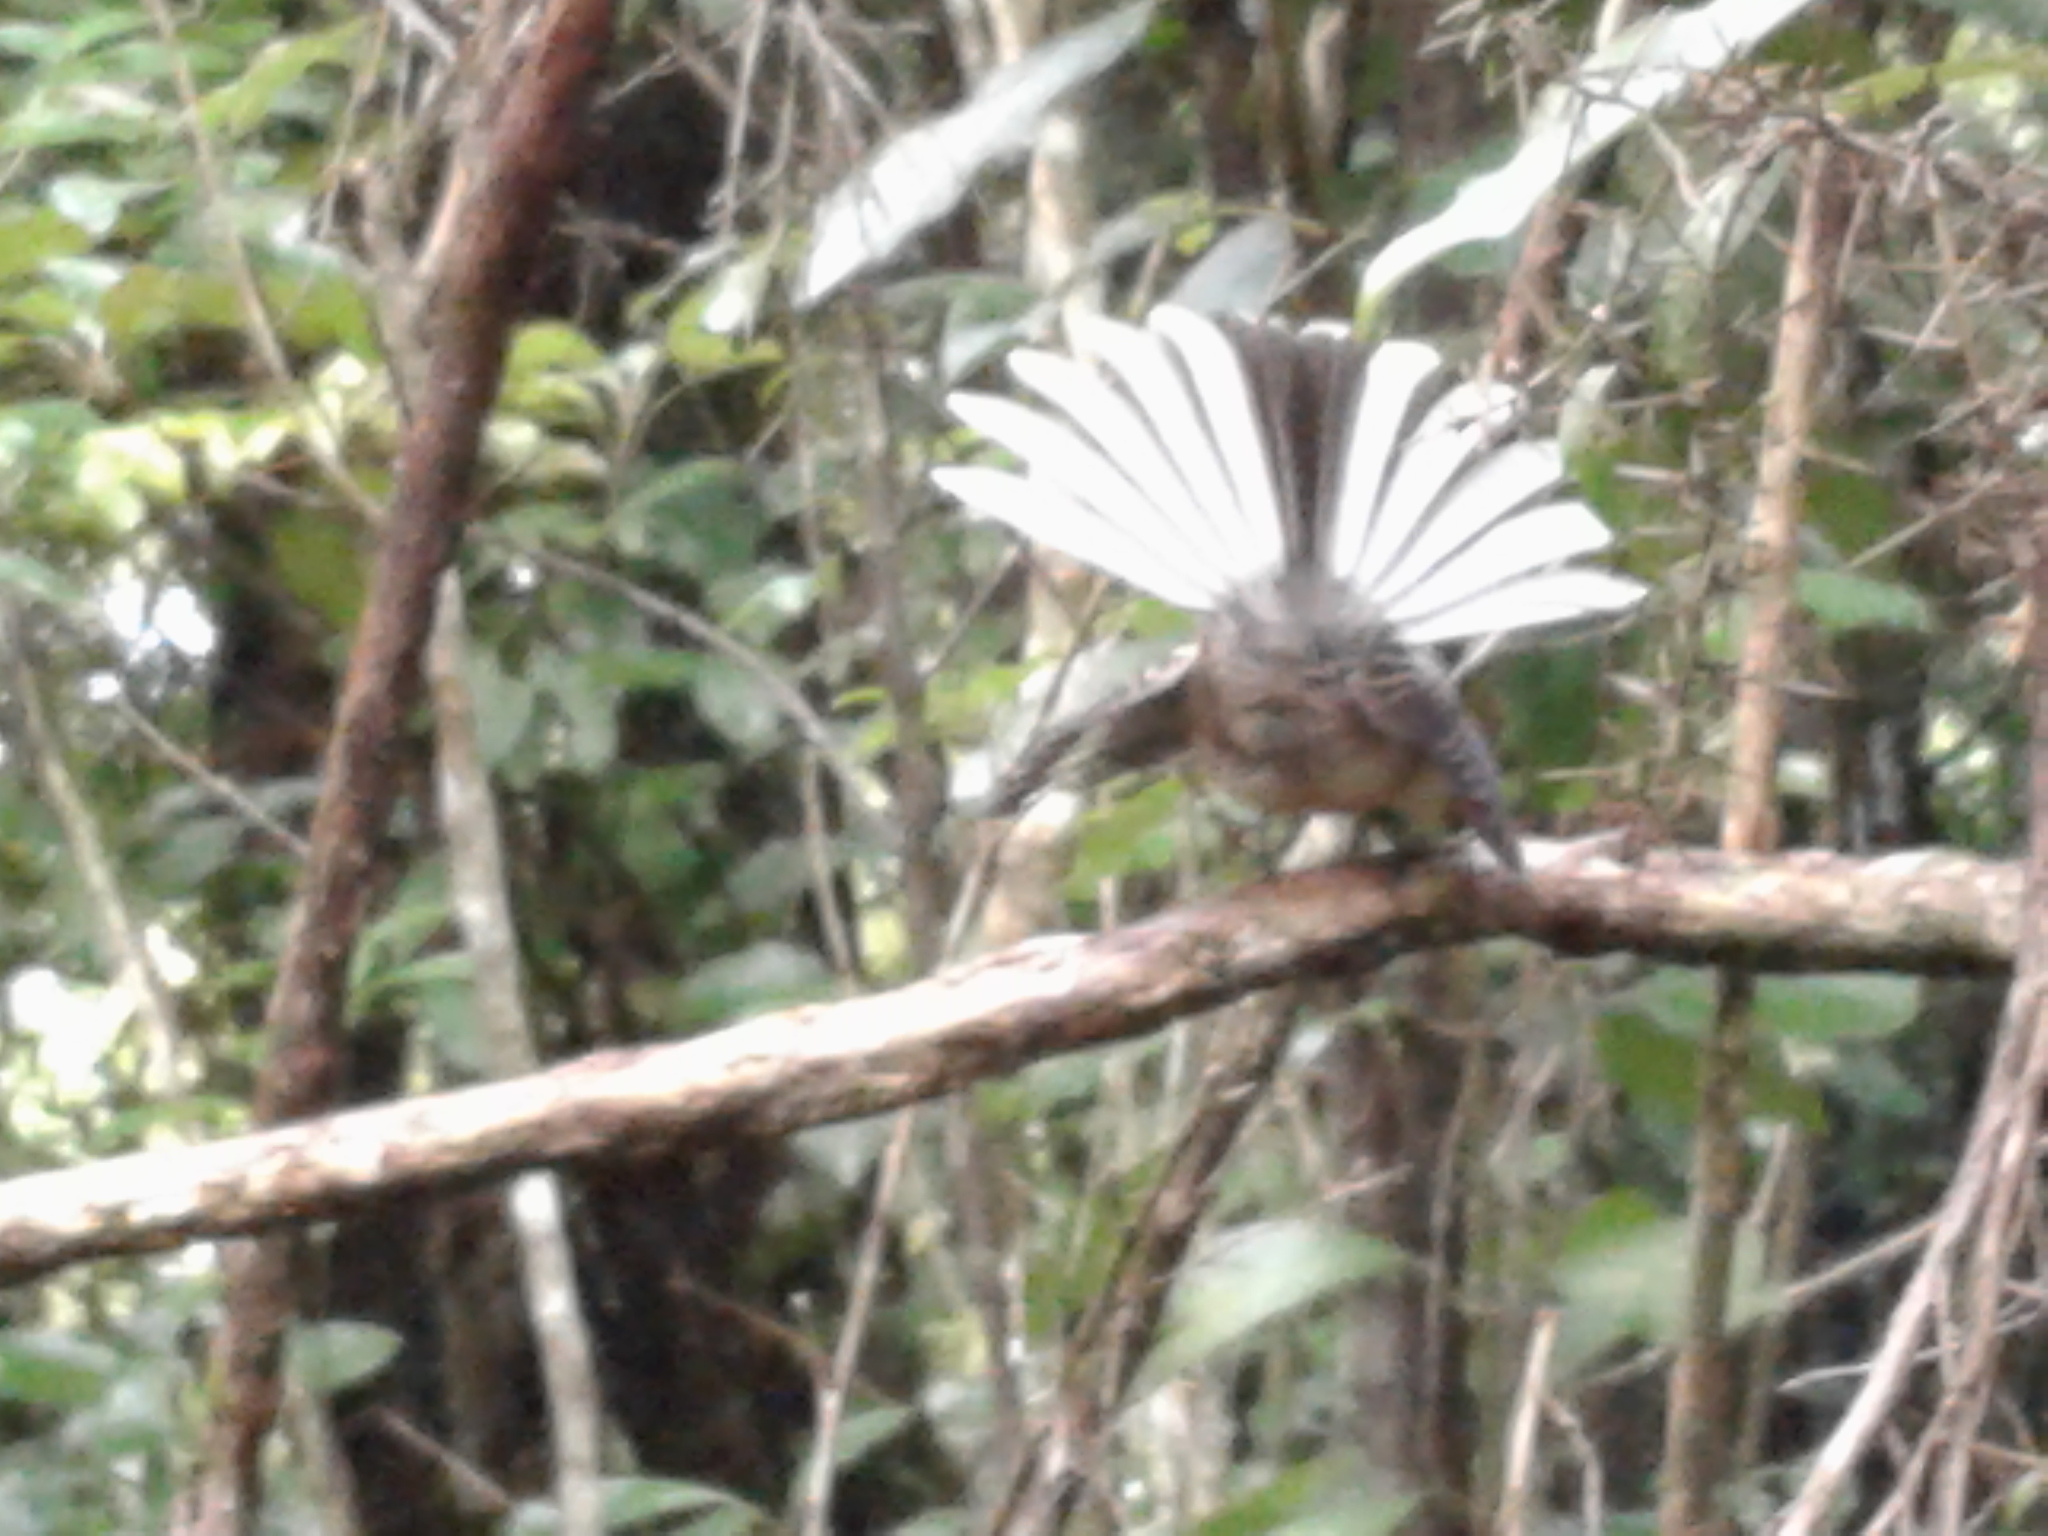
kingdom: Animalia
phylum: Chordata
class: Aves
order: Passeriformes
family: Rhipiduridae
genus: Rhipidura
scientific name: Rhipidura fuliginosa
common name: New zealand fantail
